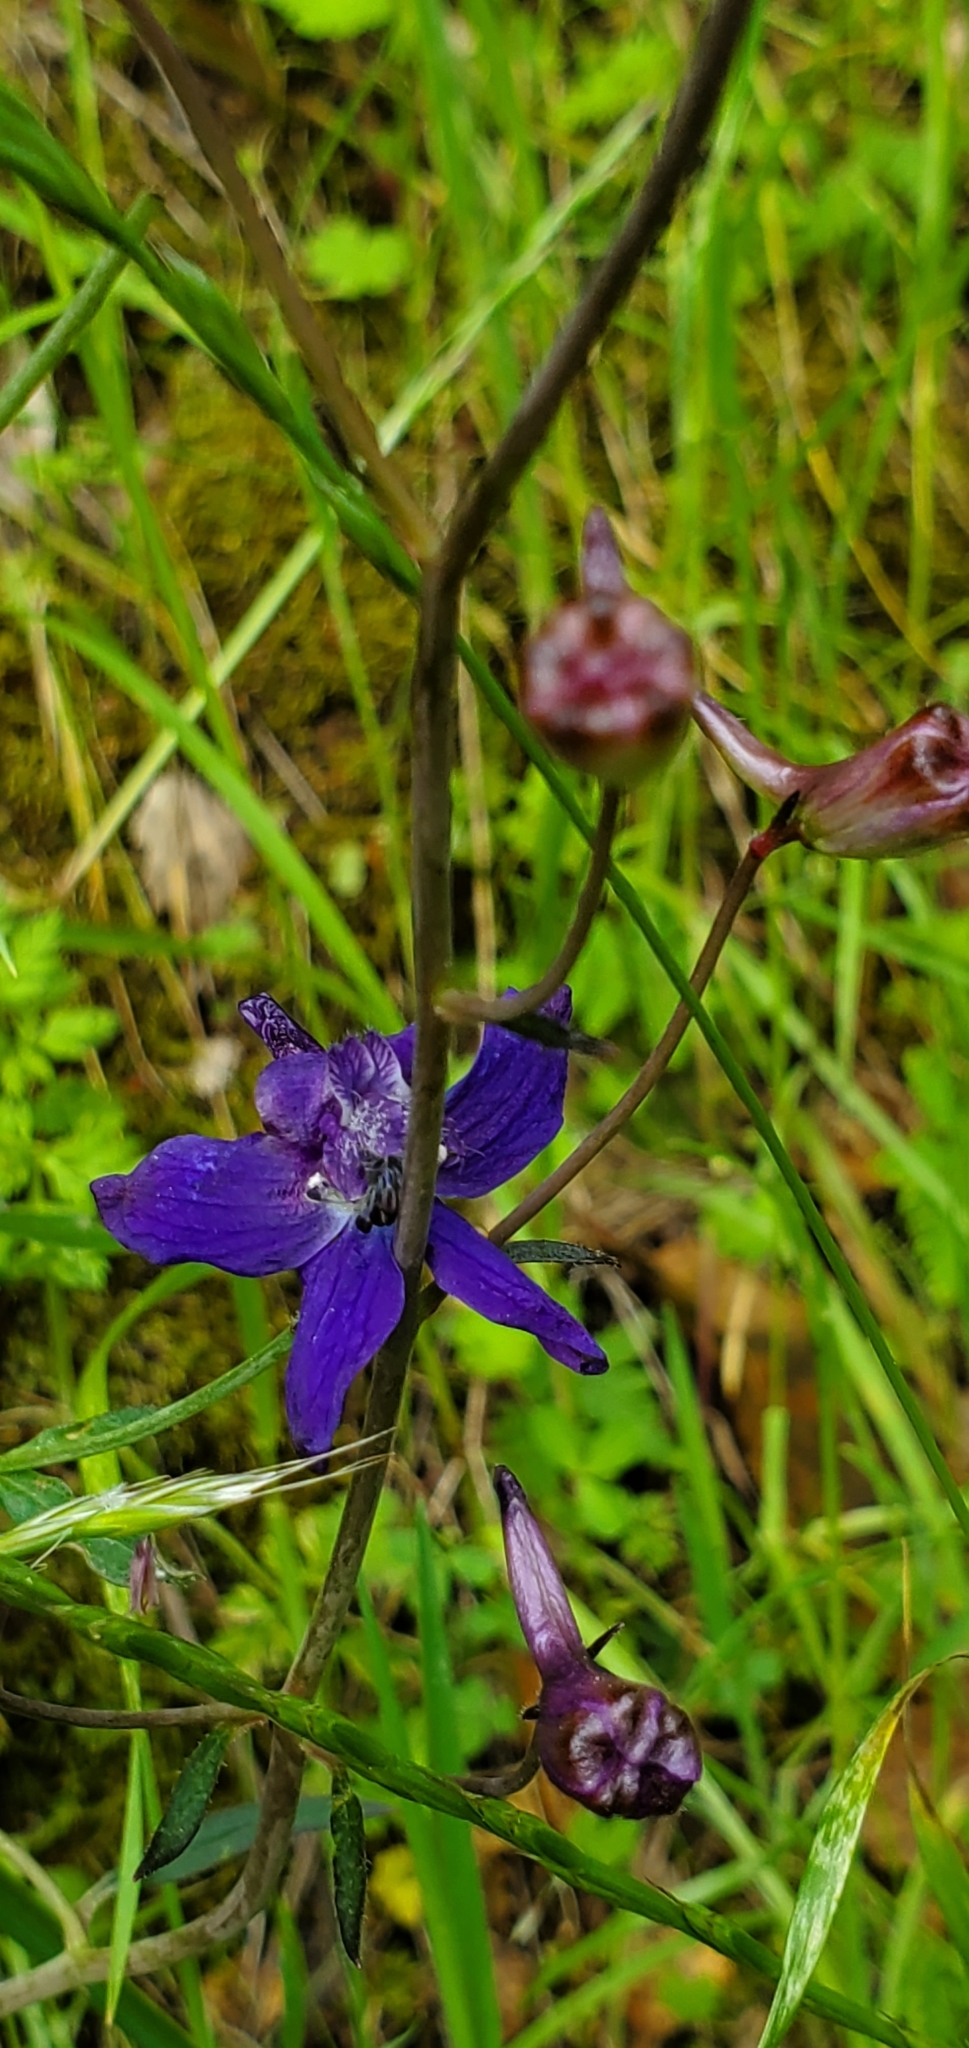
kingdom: Plantae
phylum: Tracheophyta
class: Magnoliopsida
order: Ranunculales
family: Ranunculaceae
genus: Delphinium
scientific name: Delphinium patens
